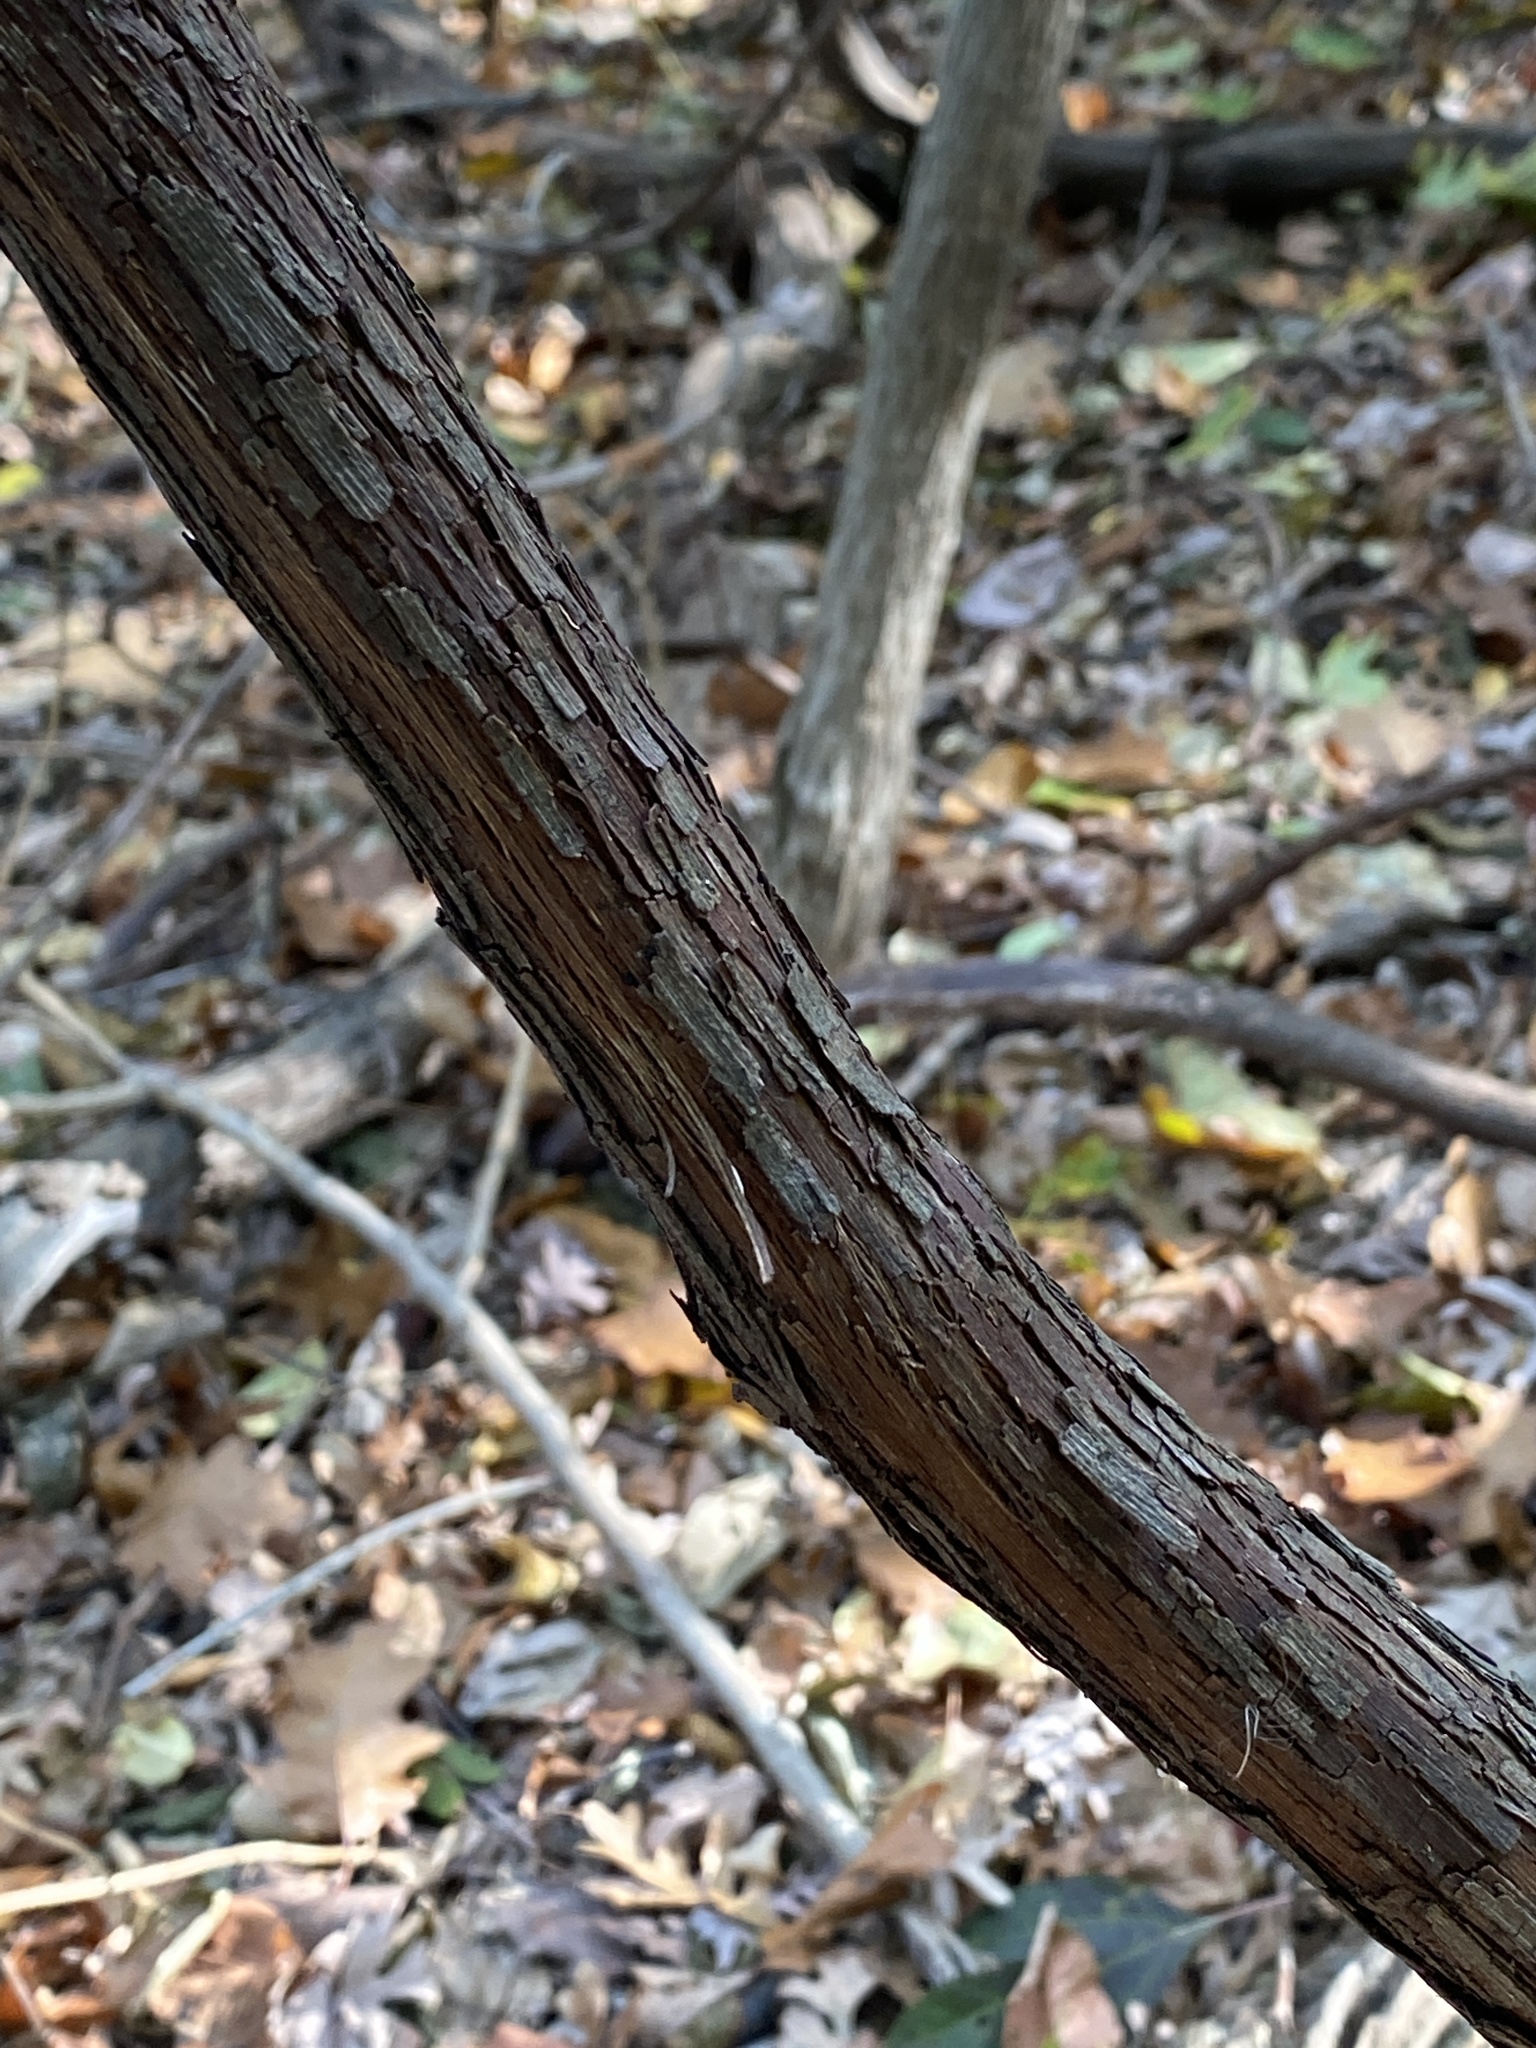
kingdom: Plantae
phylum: Tracheophyta
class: Magnoliopsida
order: Vitales
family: Vitaceae
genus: Vitis
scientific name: Vitis
